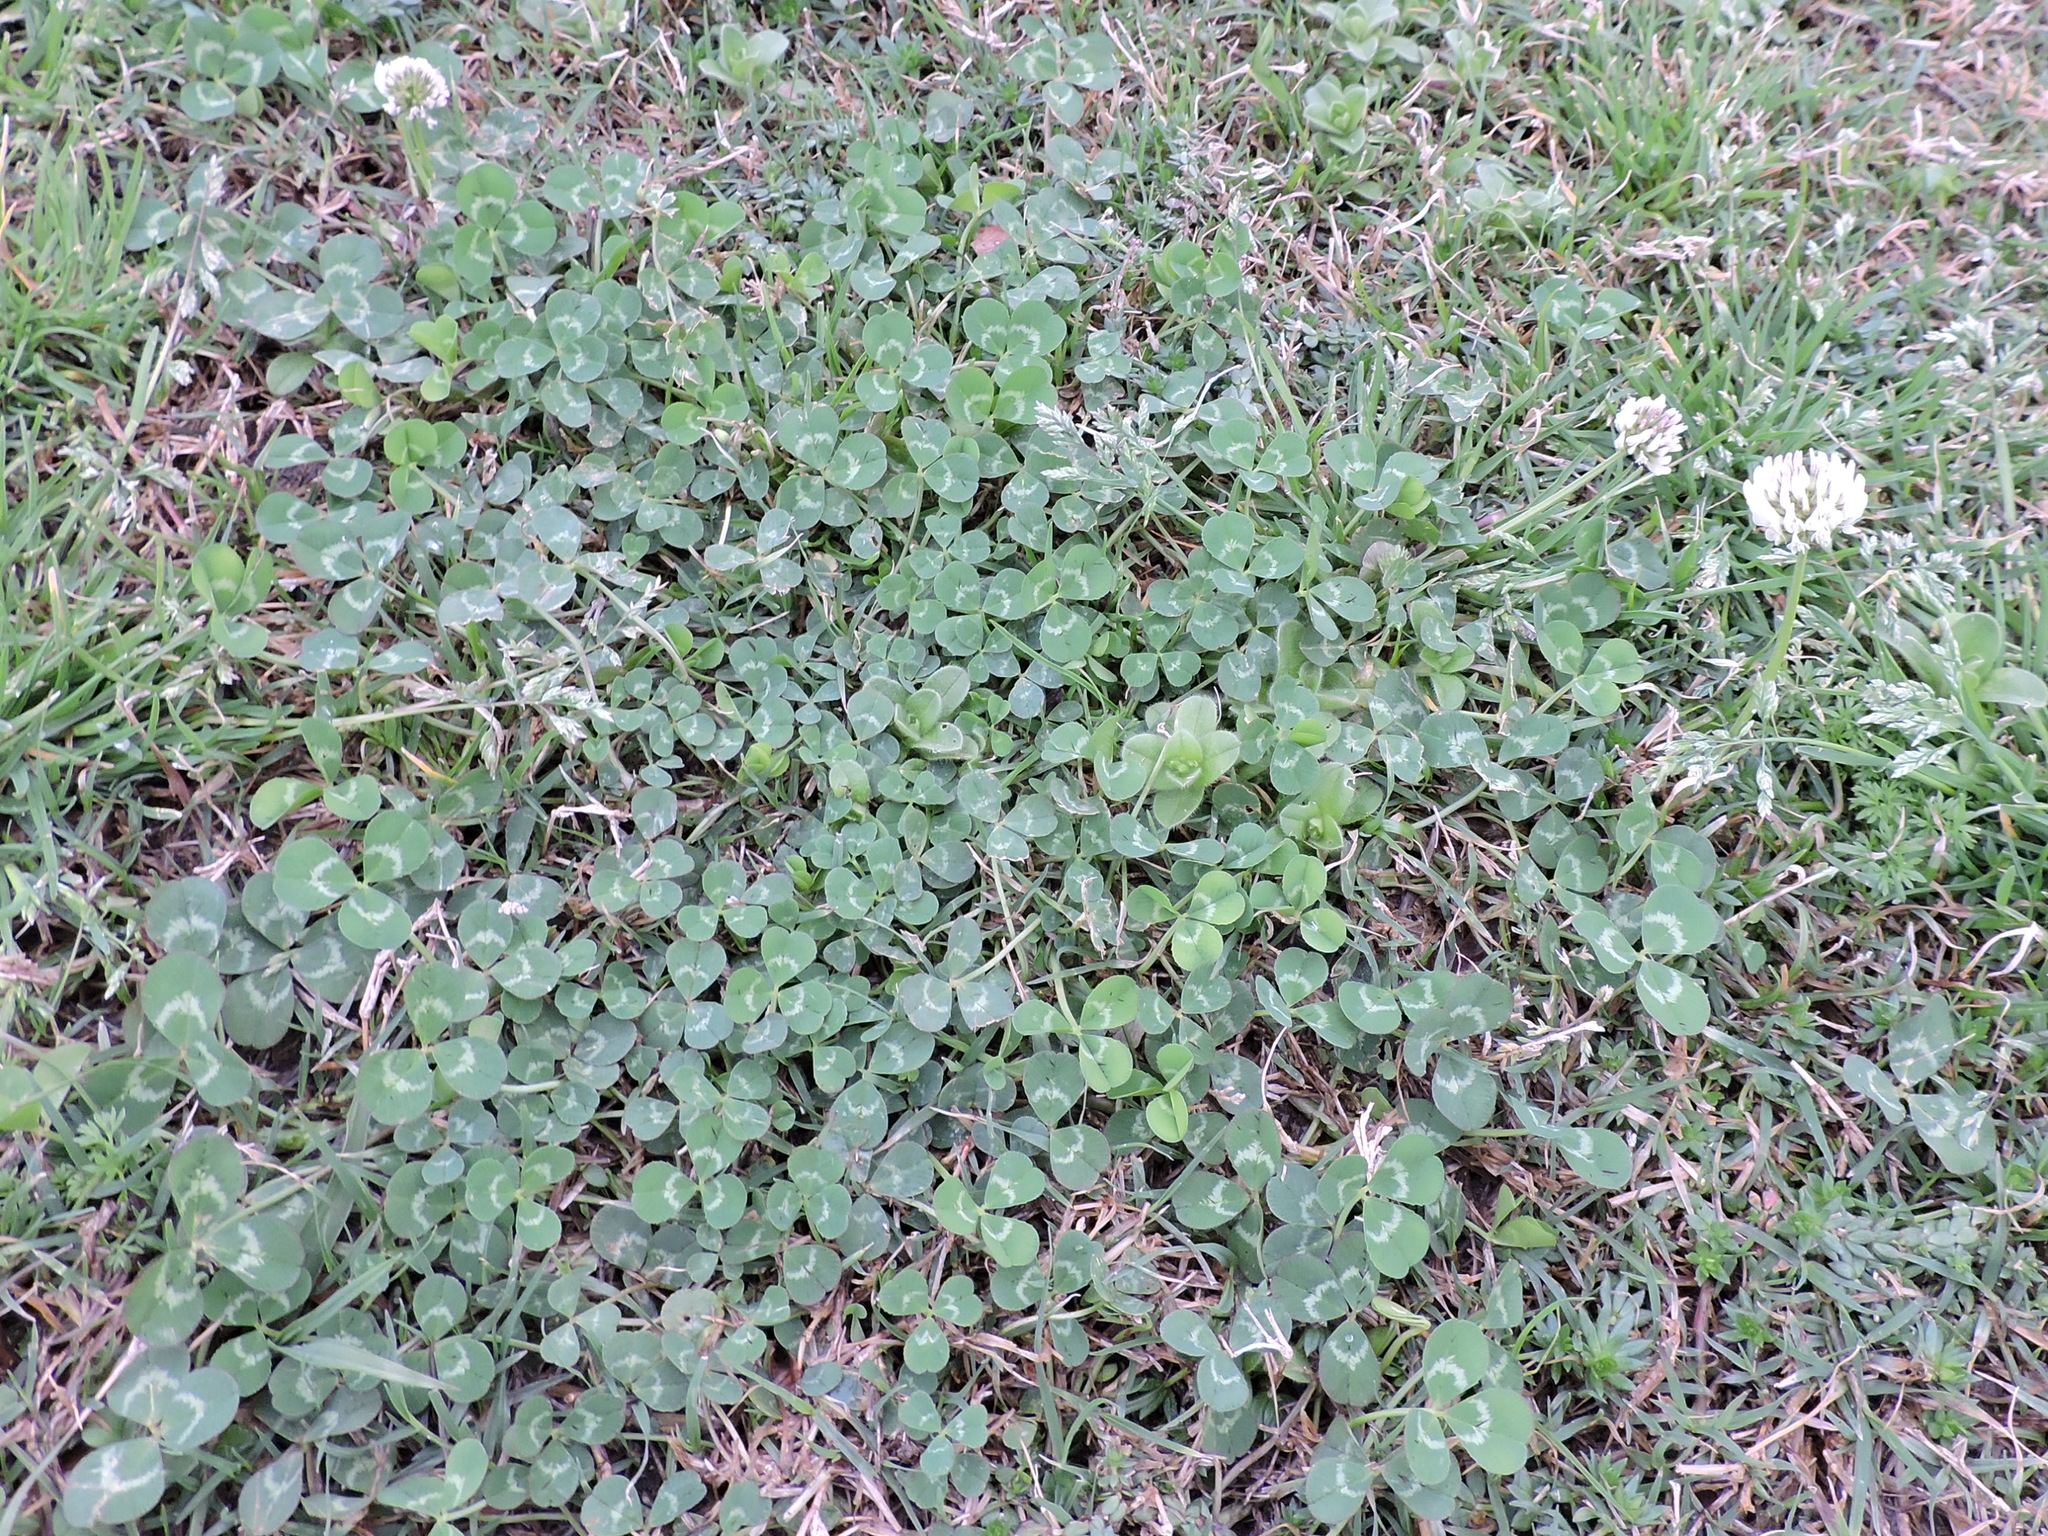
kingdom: Plantae
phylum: Tracheophyta
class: Magnoliopsida
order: Fabales
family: Fabaceae
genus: Trifolium
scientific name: Trifolium repens
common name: White clover
